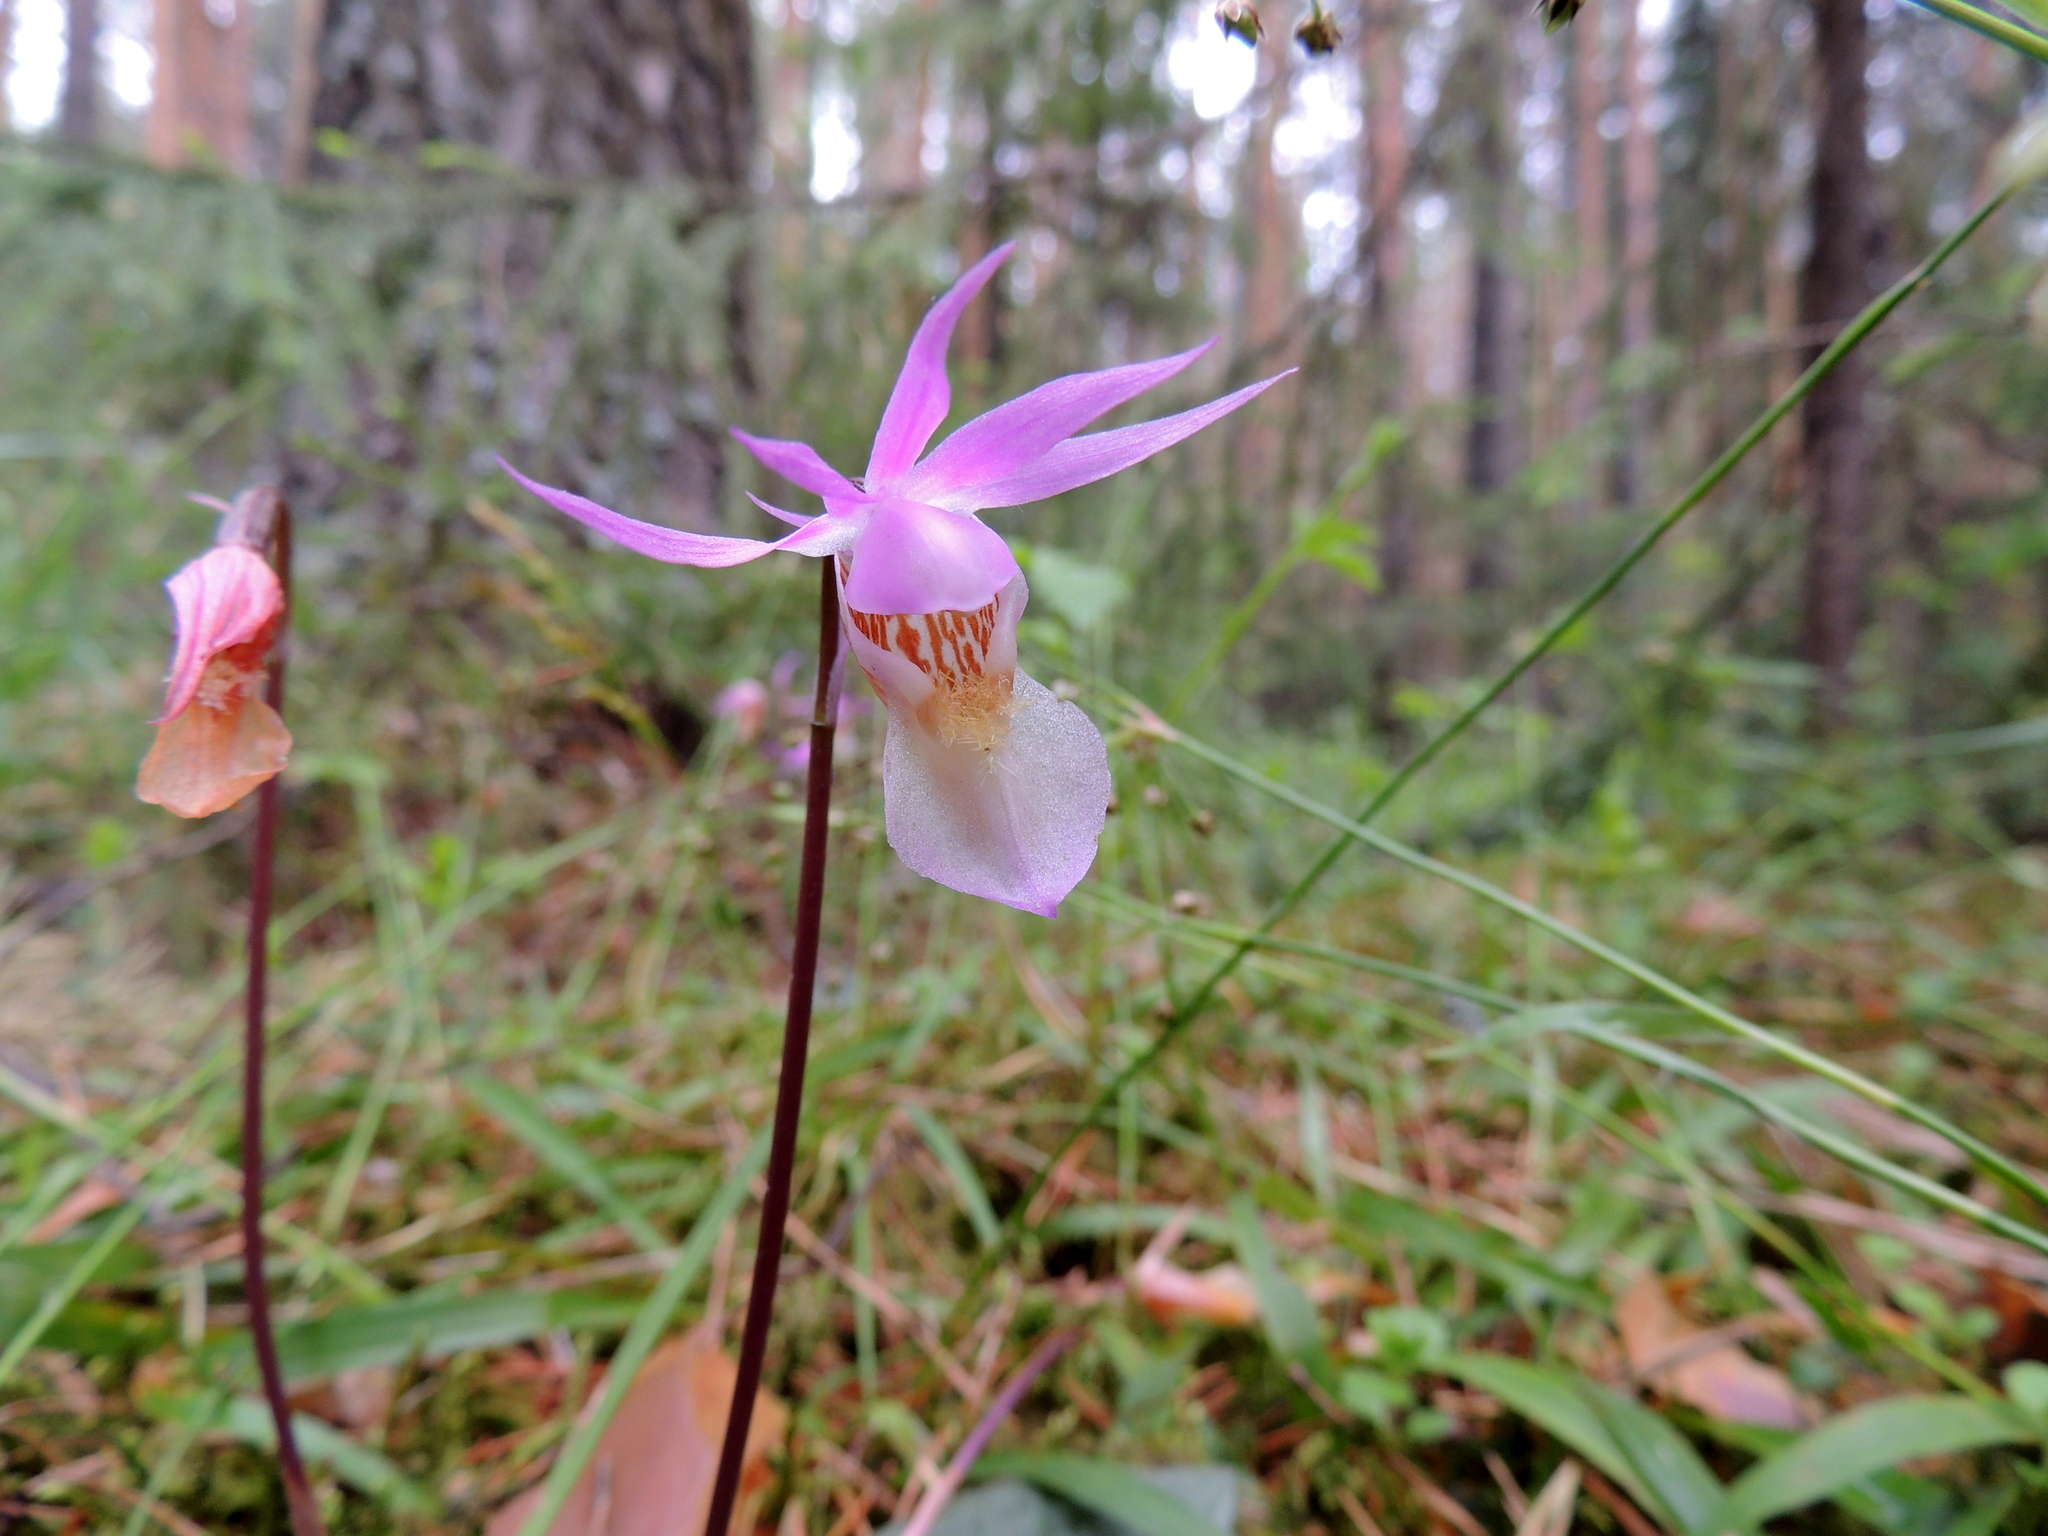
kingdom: Plantae
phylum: Tracheophyta
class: Liliopsida
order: Asparagales
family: Orchidaceae
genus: Calypso
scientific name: Calypso bulbosa
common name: Calypso
